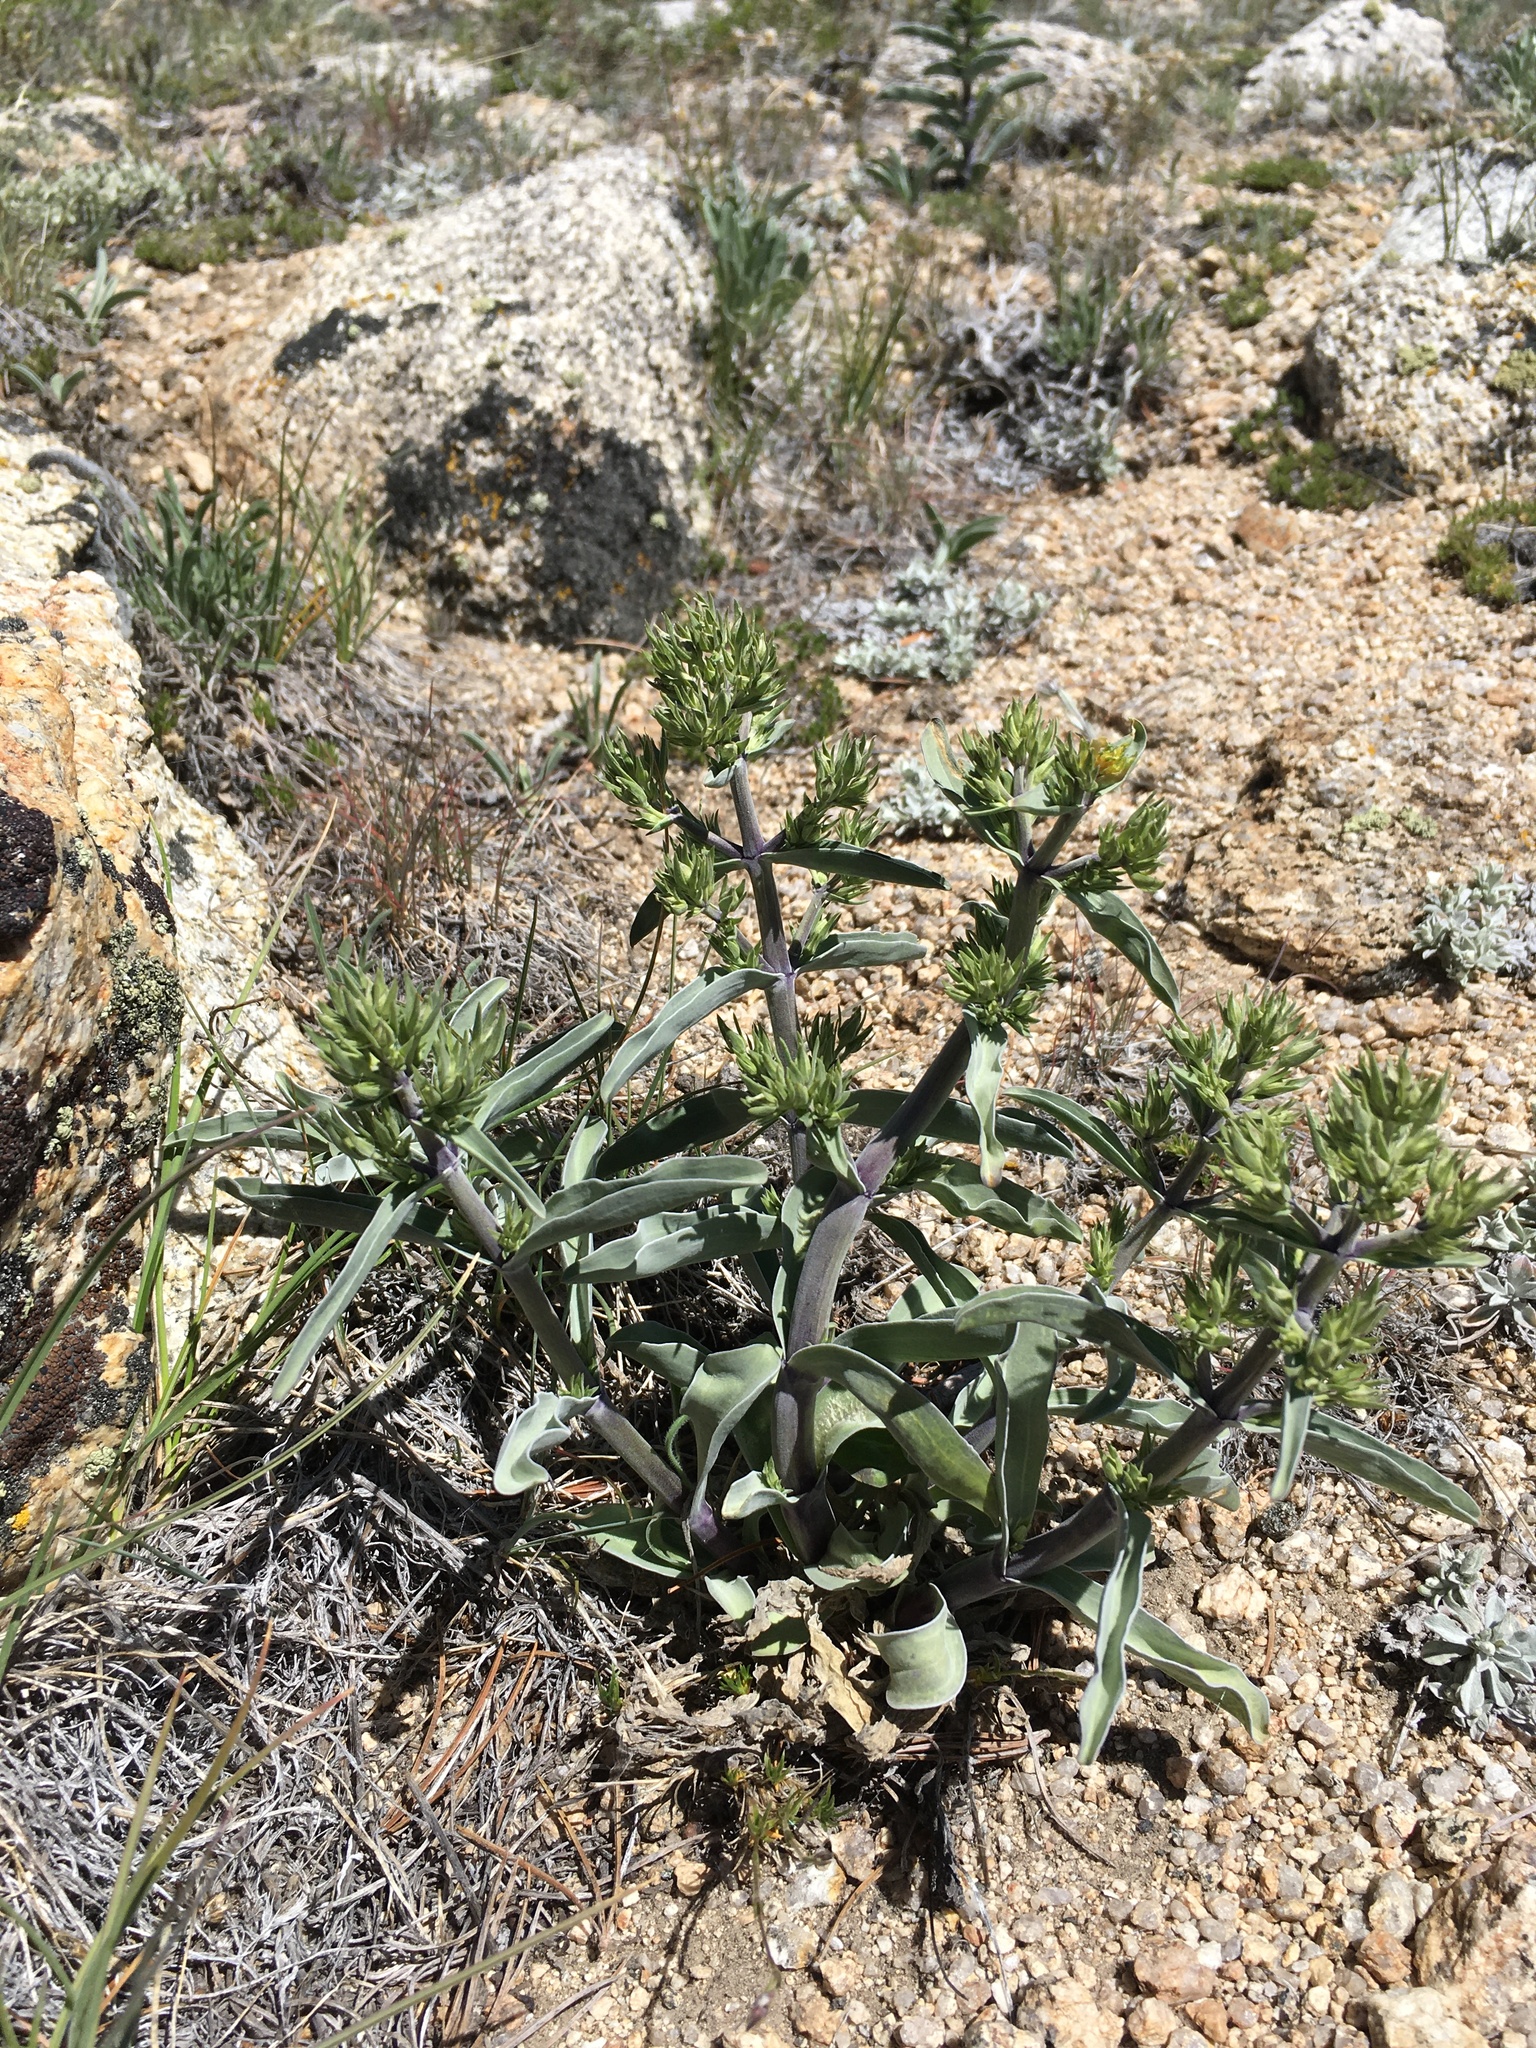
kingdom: Plantae
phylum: Tracheophyta
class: Magnoliopsida
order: Gentianales
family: Gentianaceae
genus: Frasera
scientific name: Frasera puberulenta
